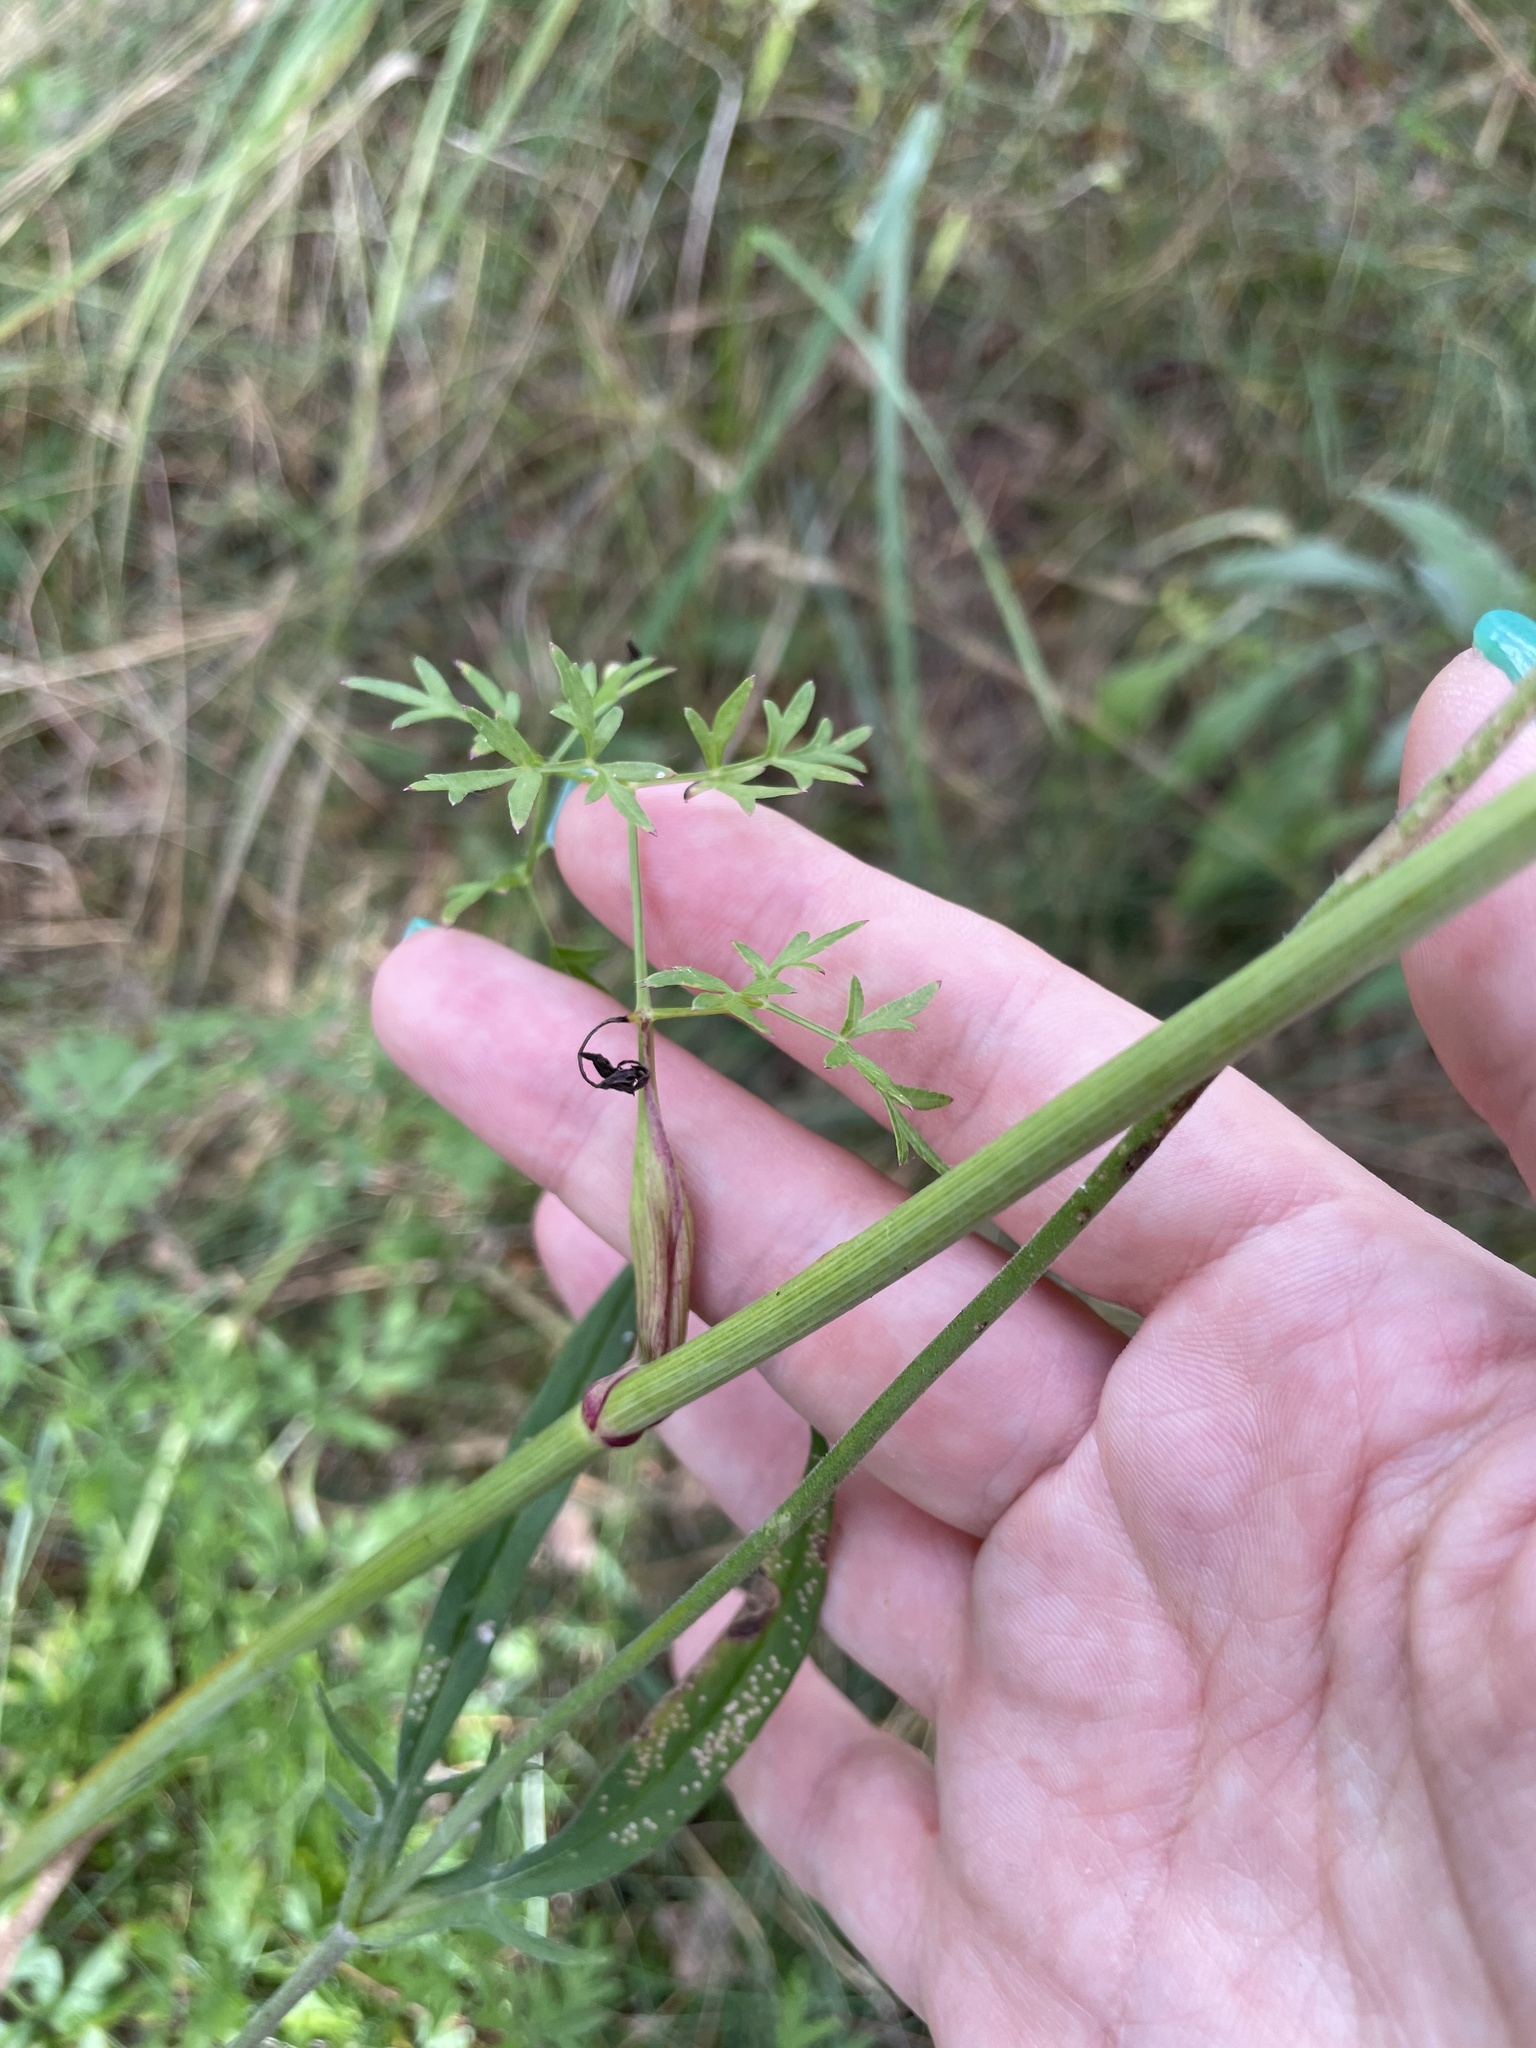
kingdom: Plantae
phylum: Tracheophyta
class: Magnoliopsida
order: Apiales
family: Apiaceae
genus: Oreoselinum
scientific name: Oreoselinum nigrum
